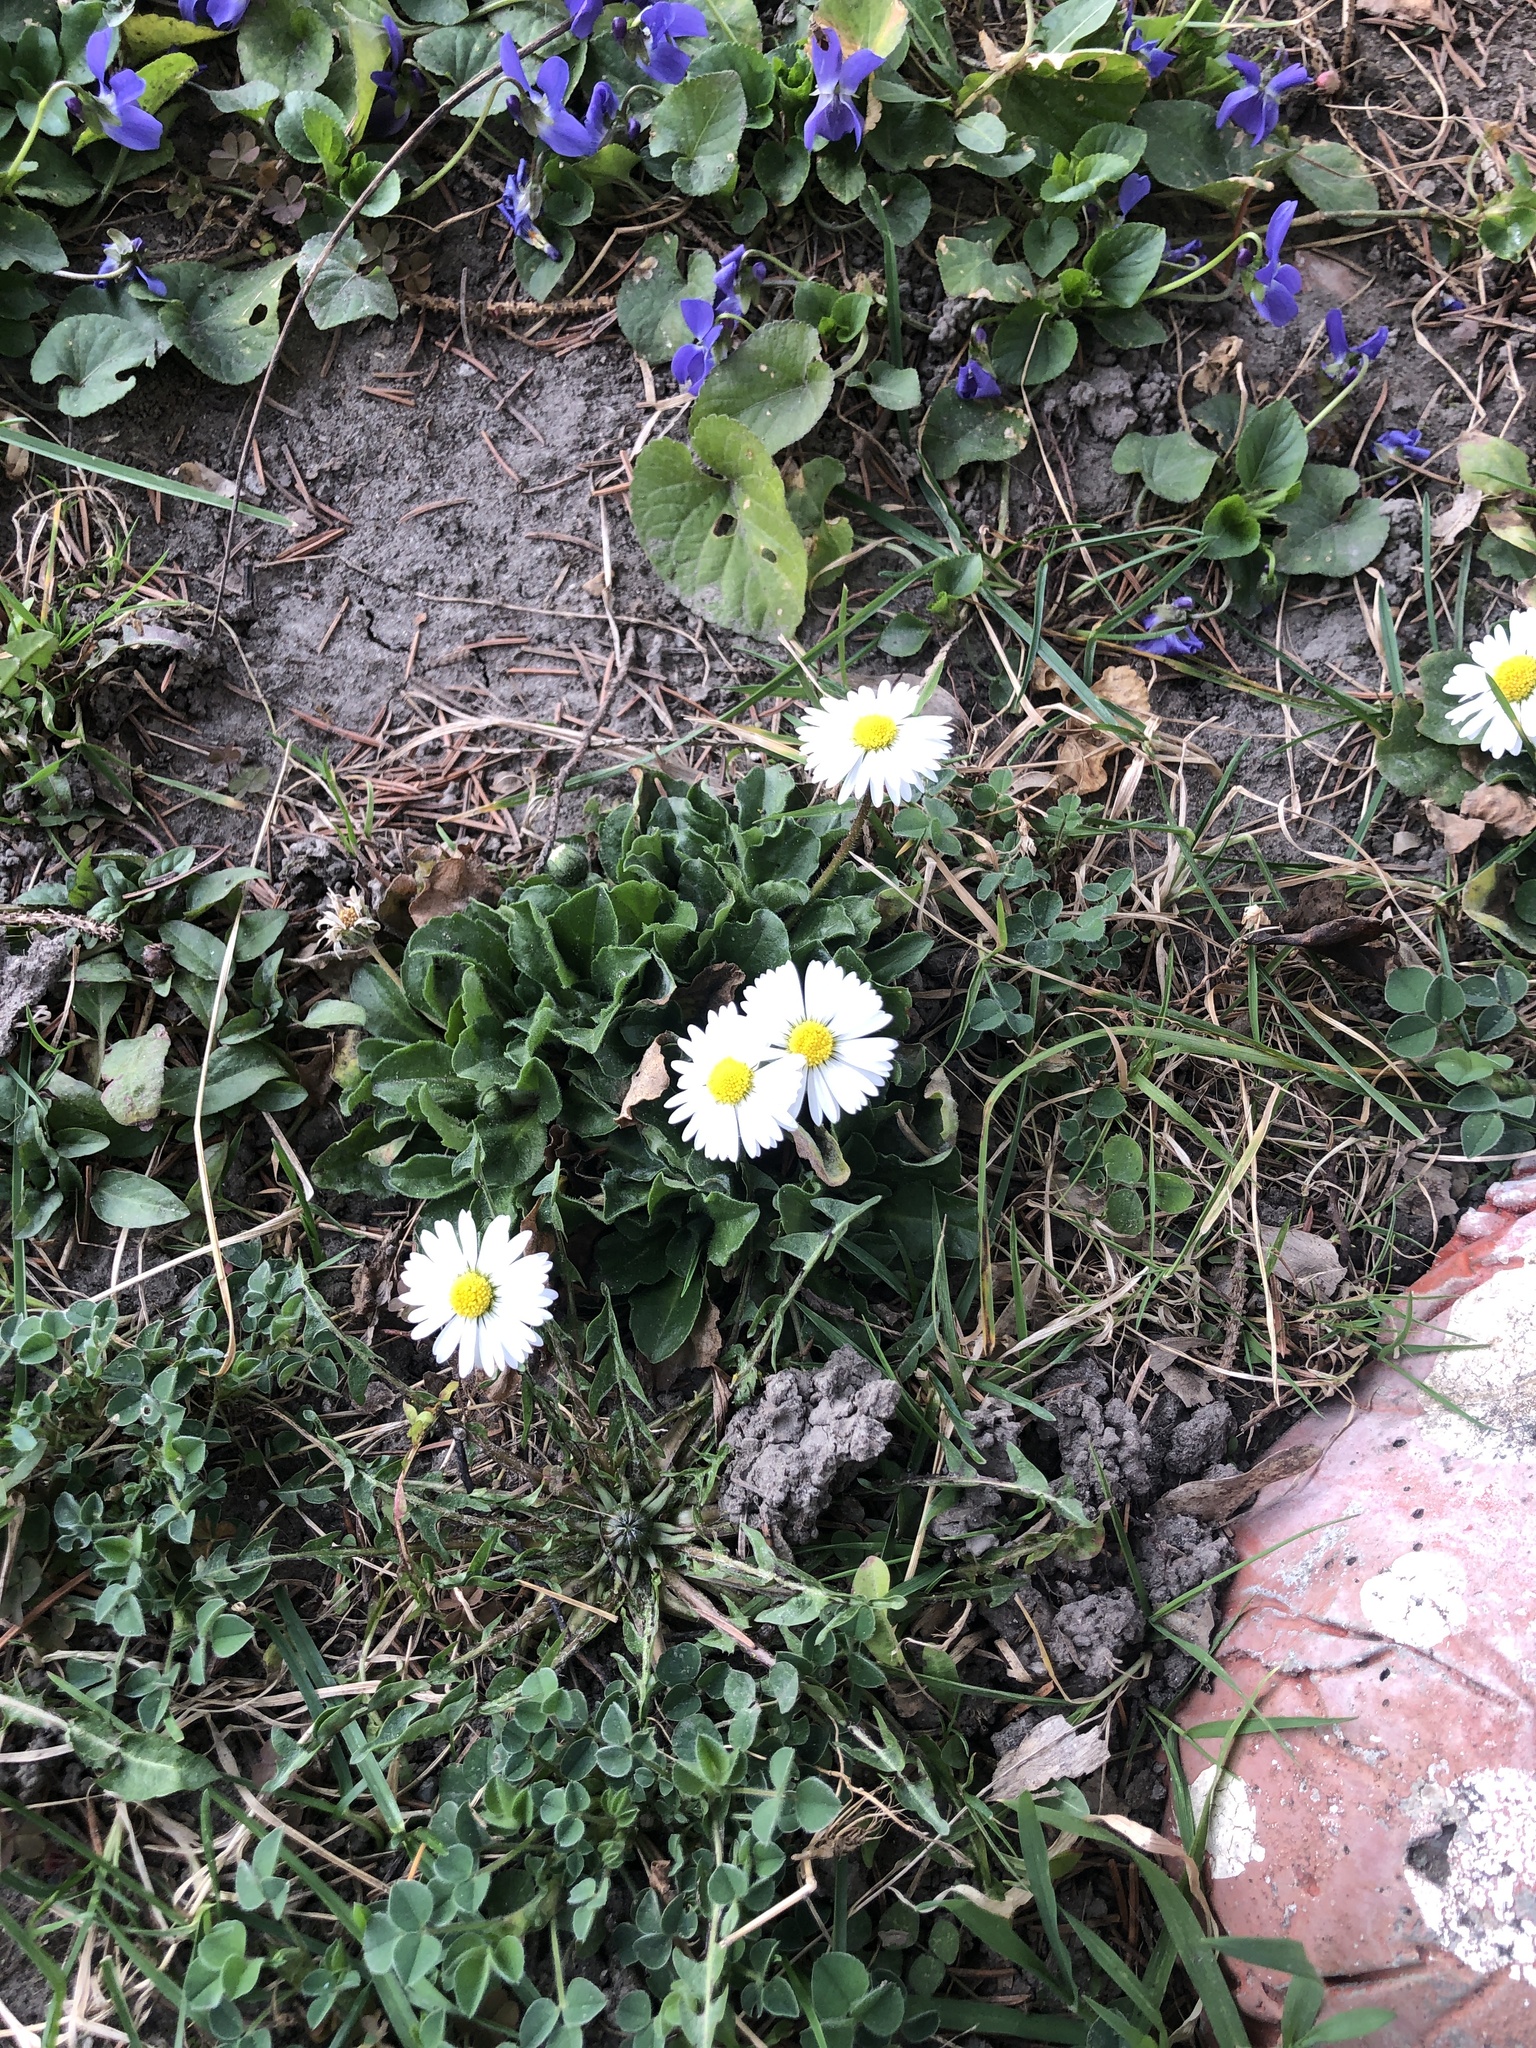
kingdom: Plantae
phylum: Tracheophyta
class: Magnoliopsida
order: Asterales
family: Asteraceae
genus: Bellis
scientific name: Bellis perennis
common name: Lawndaisy
